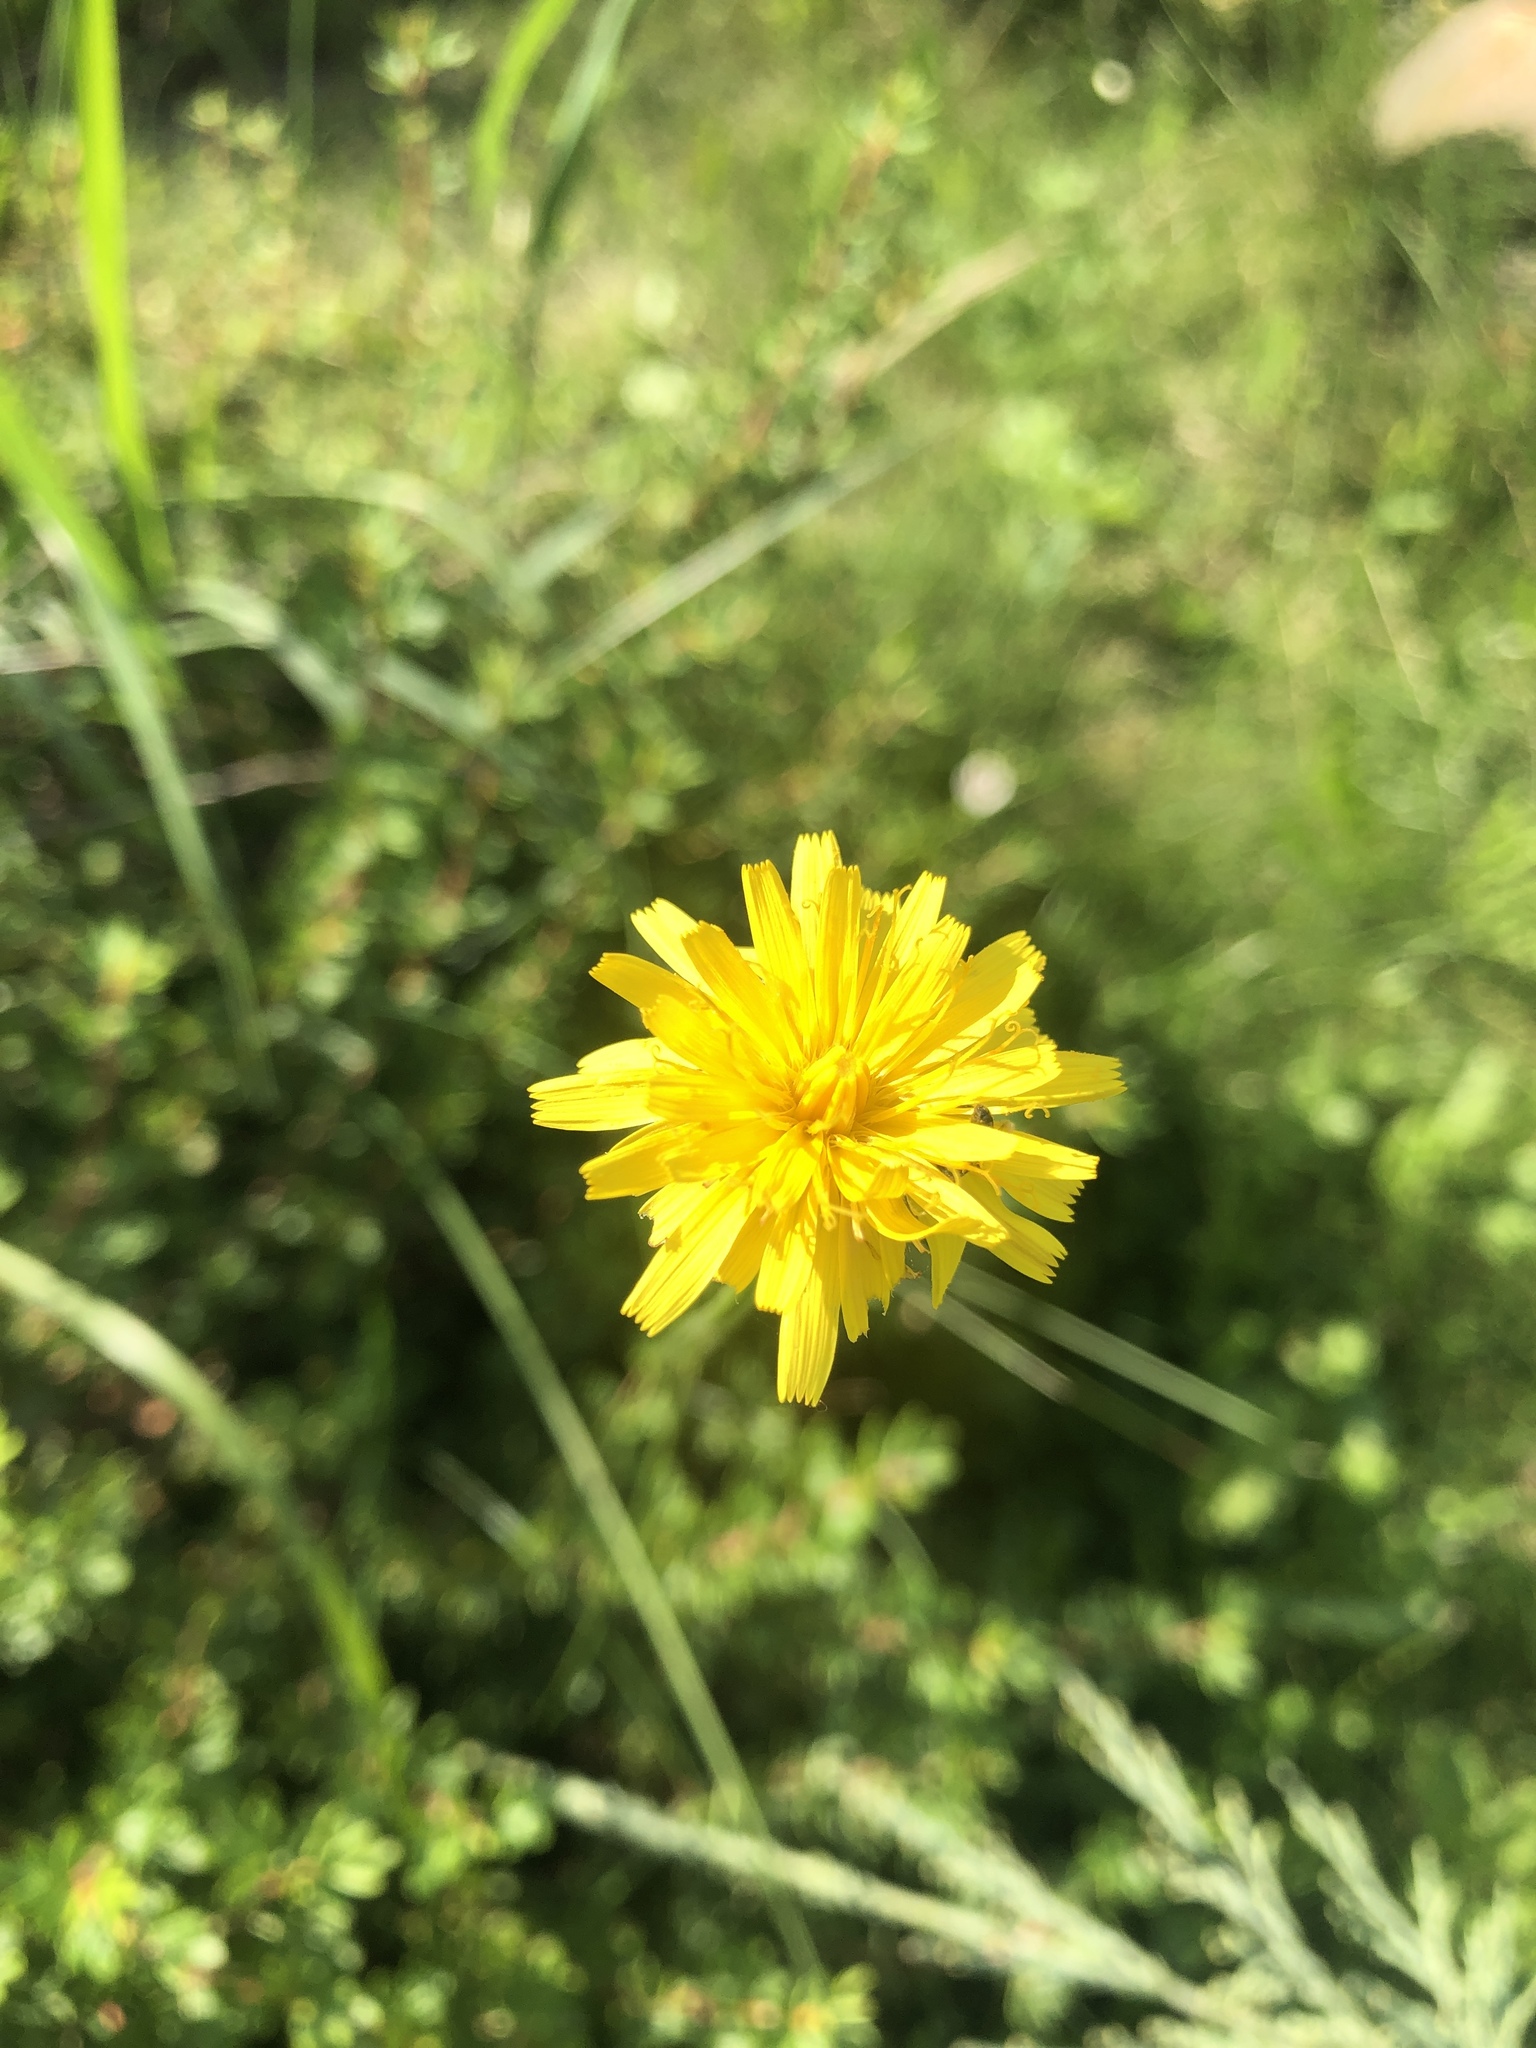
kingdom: Plantae
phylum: Tracheophyta
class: Magnoliopsida
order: Asterales
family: Asteraceae
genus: Scorzoneroides
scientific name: Scorzoneroides autumnalis
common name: Autumn hawkbit
